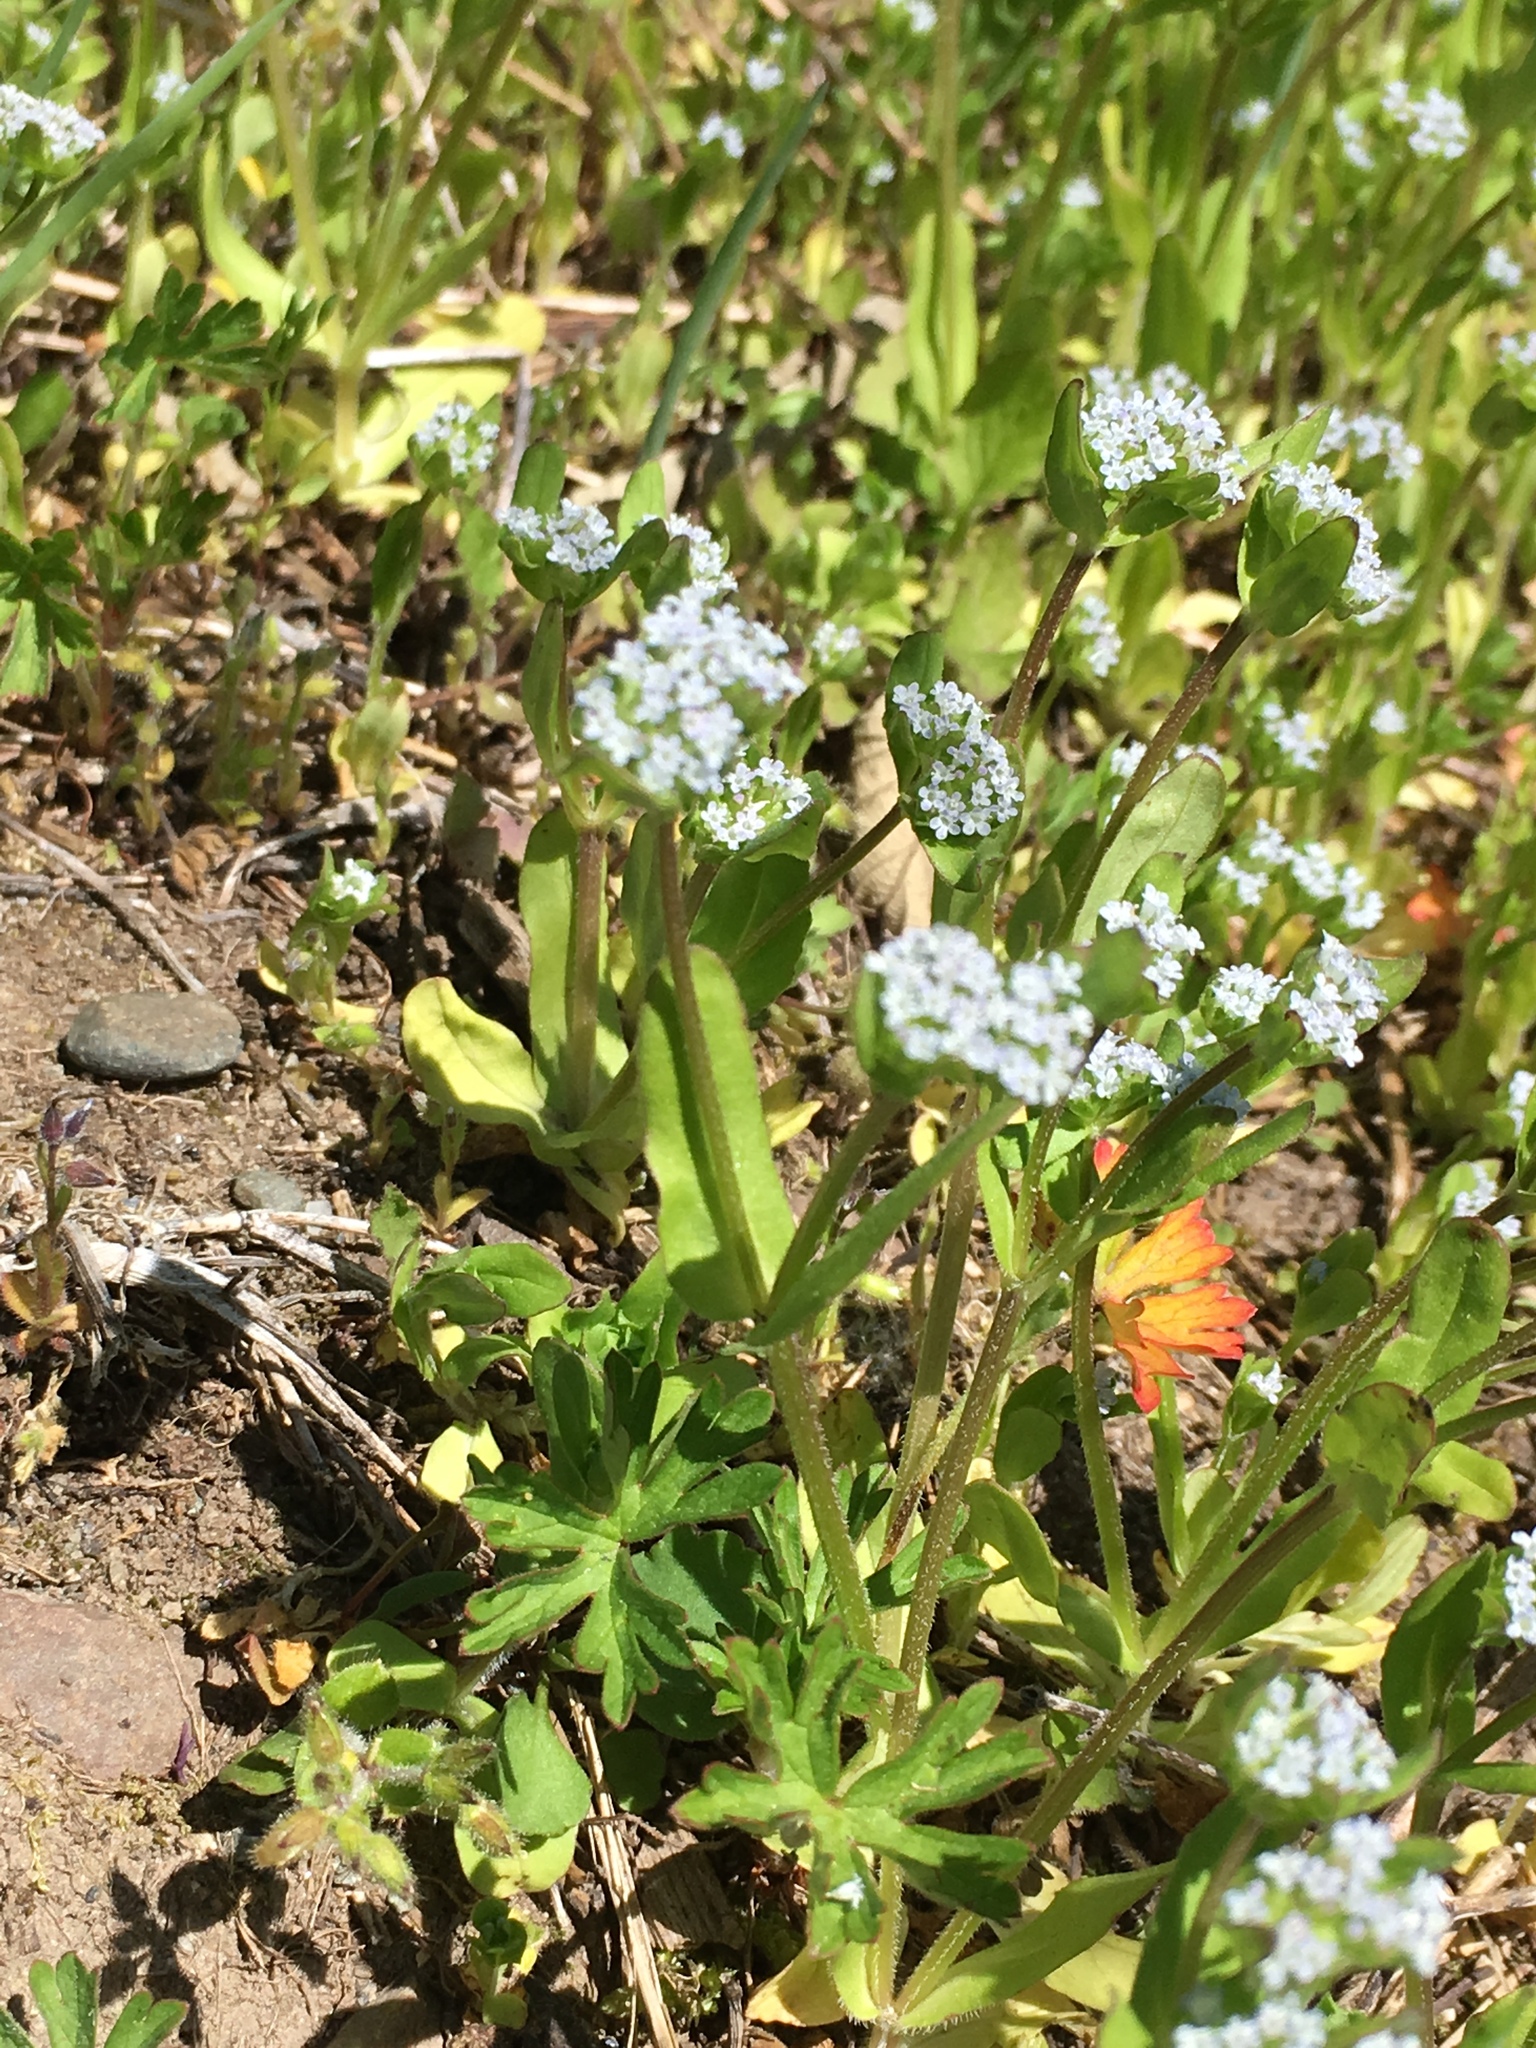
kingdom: Plantae
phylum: Tracheophyta
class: Magnoliopsida
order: Dipsacales
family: Caprifoliaceae
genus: Valerianella
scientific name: Valerianella locusta
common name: Common cornsalad
